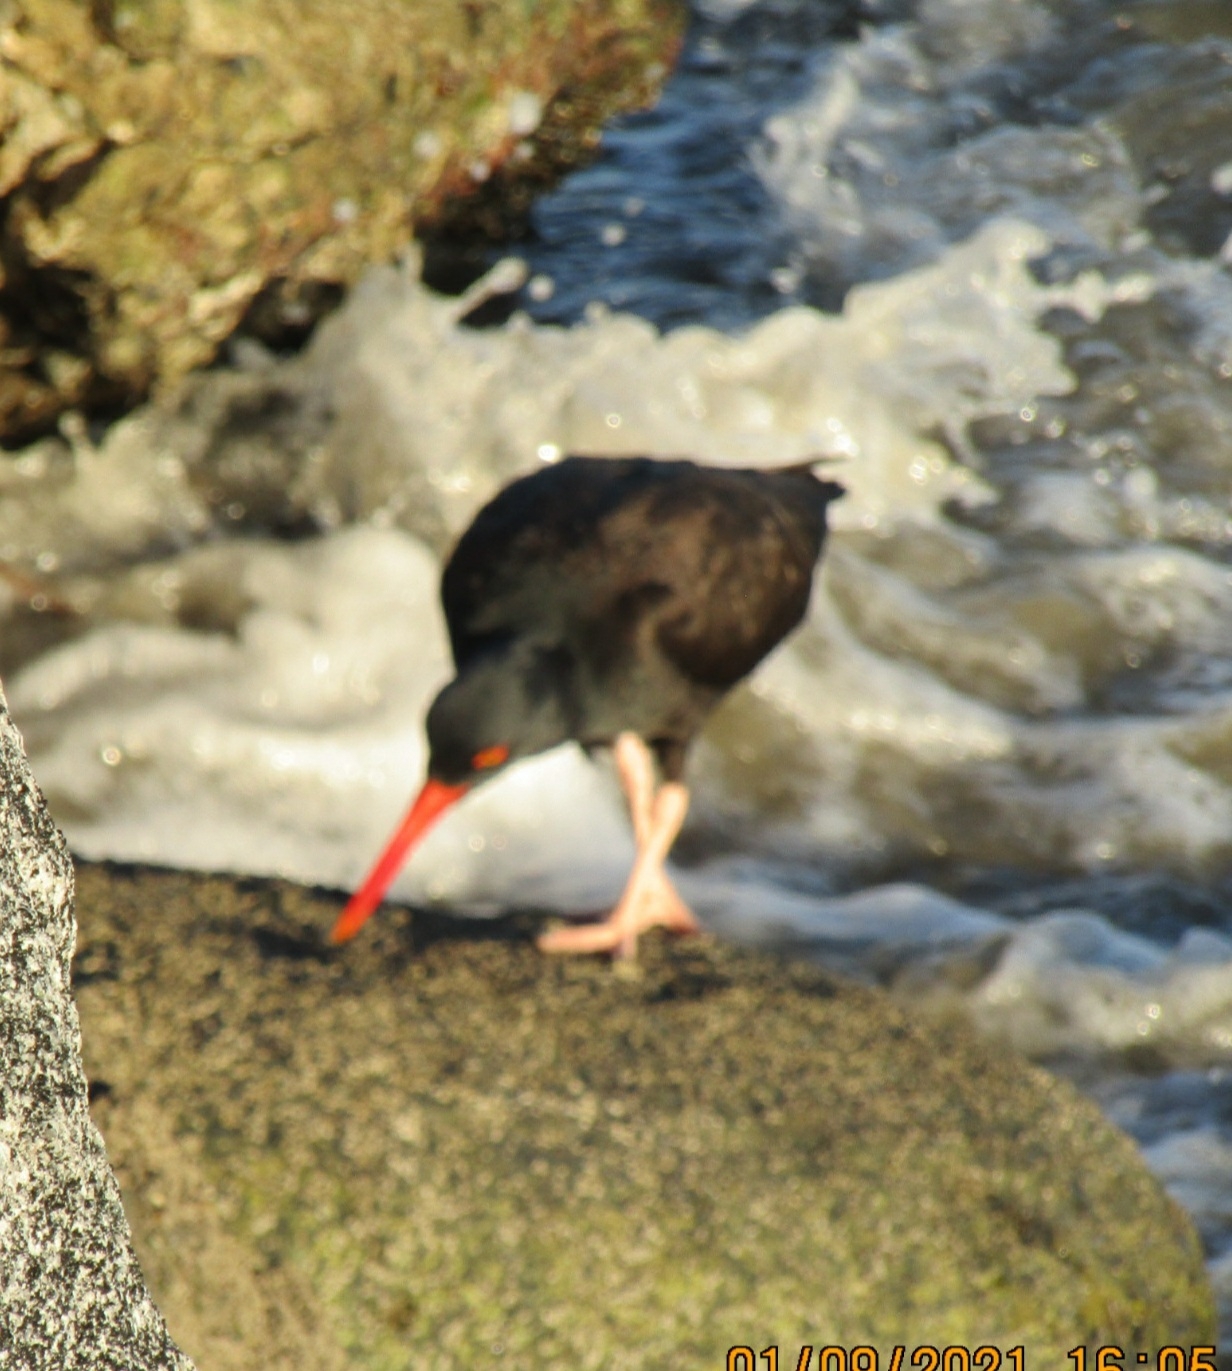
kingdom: Animalia
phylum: Chordata
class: Aves
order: Charadriiformes
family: Haematopodidae
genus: Haematopus
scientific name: Haematopus bachmani
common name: Black oystercatcher
